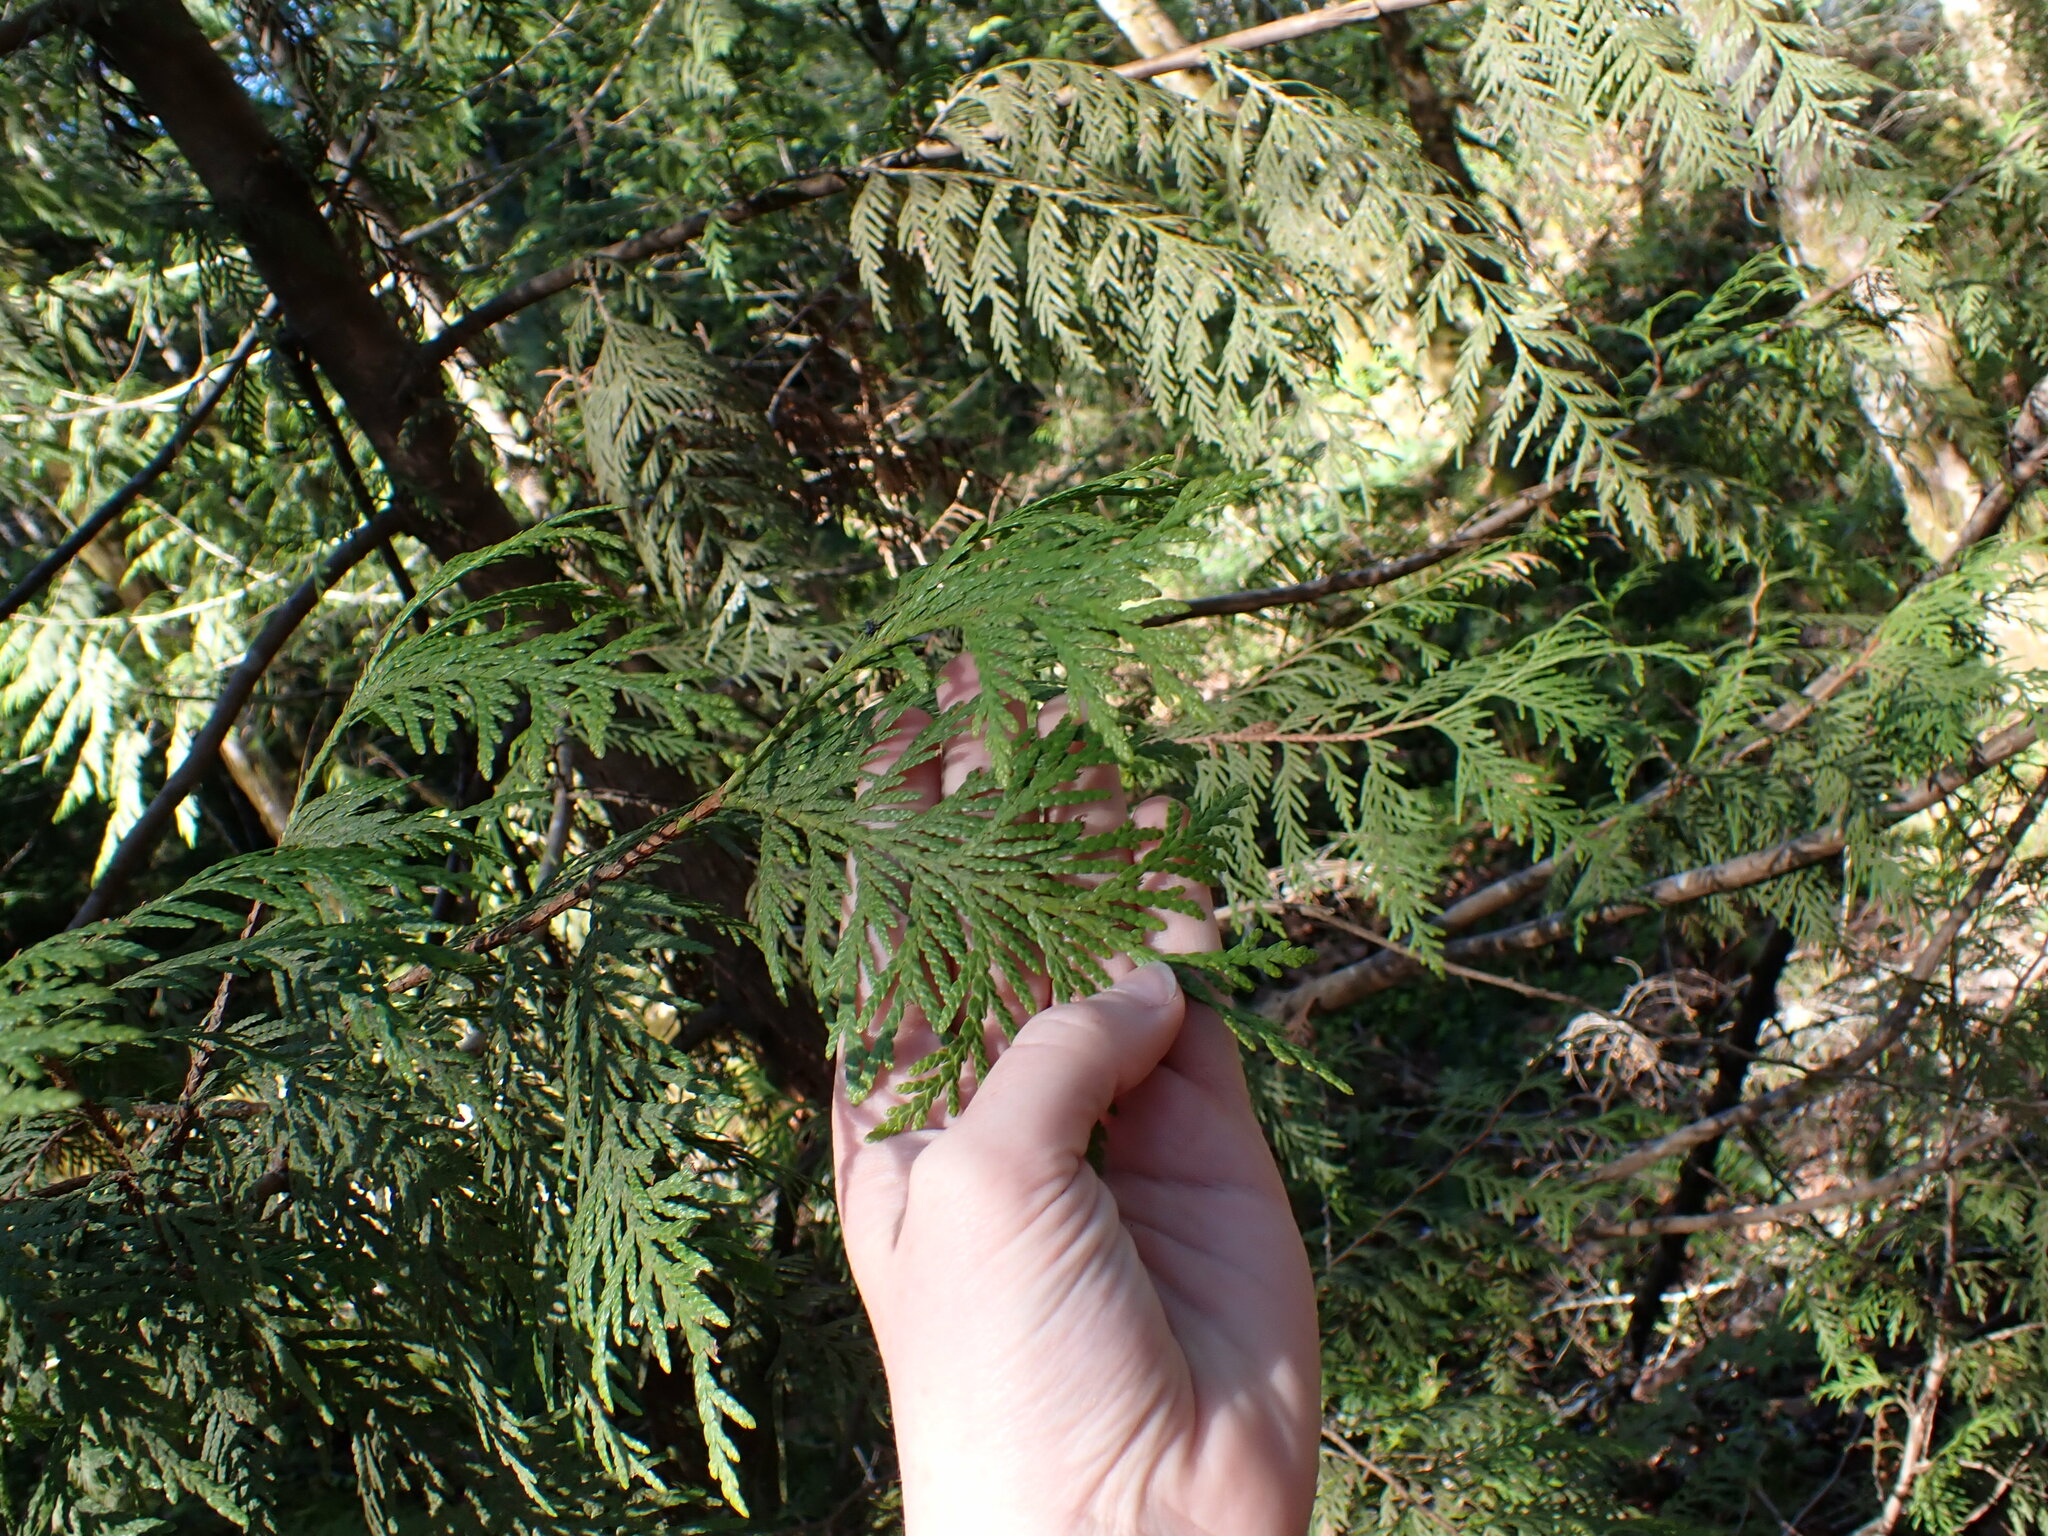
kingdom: Plantae
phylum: Tracheophyta
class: Pinopsida
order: Pinales
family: Cupressaceae
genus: Thuja
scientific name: Thuja plicata
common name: Western red-cedar
